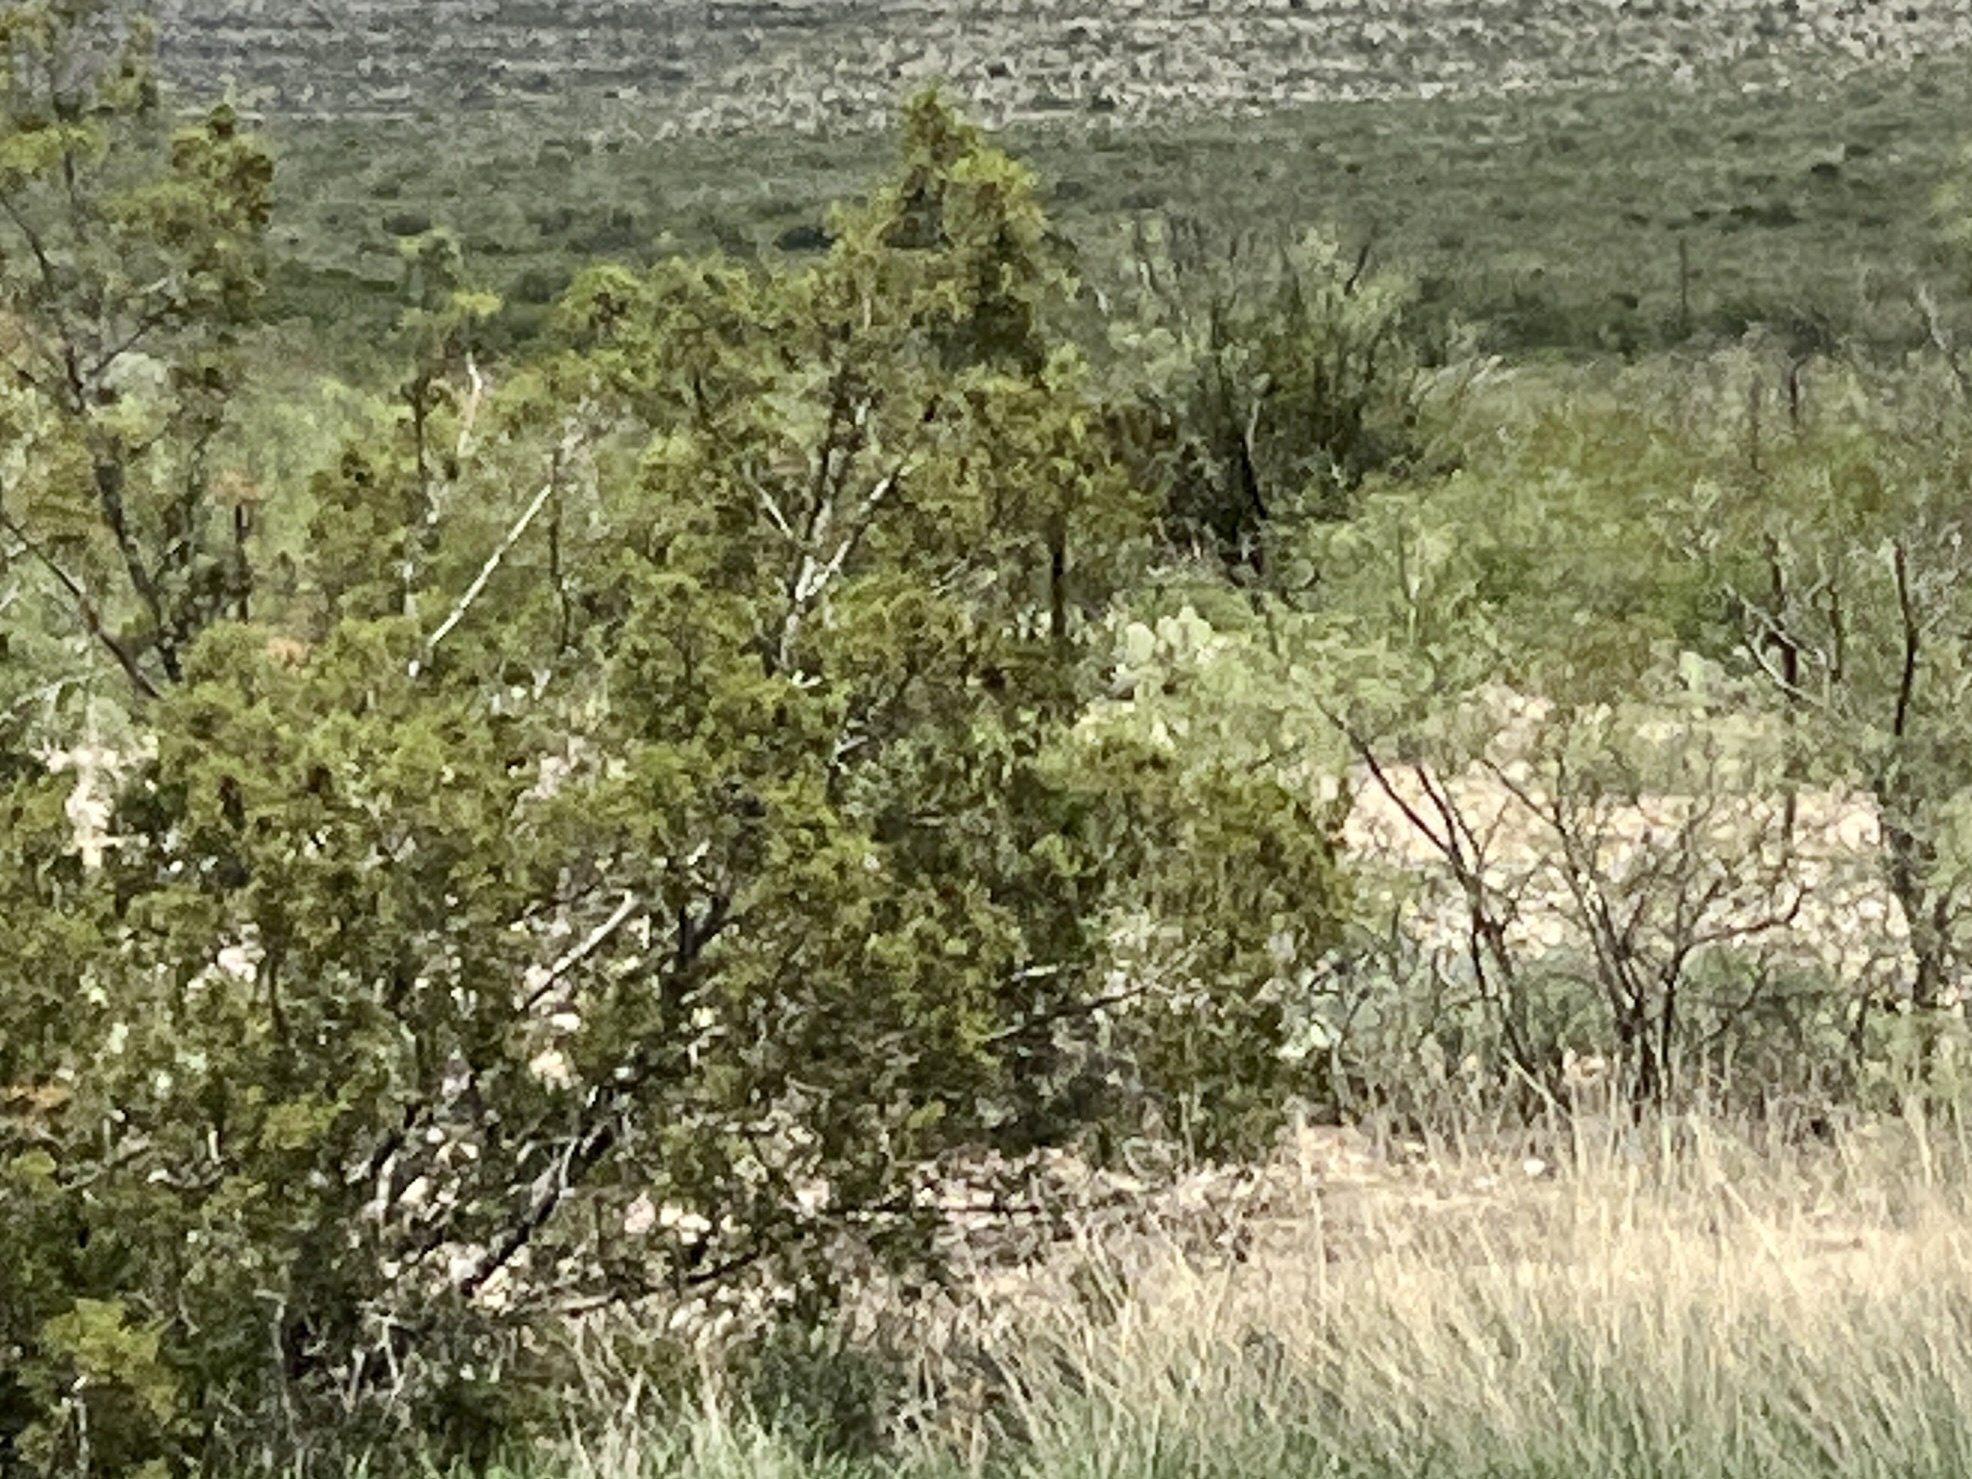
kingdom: Plantae
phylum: Tracheophyta
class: Magnoliopsida
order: Zygophyllales
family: Zygophyllaceae
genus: Larrea
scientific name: Larrea tridentata
